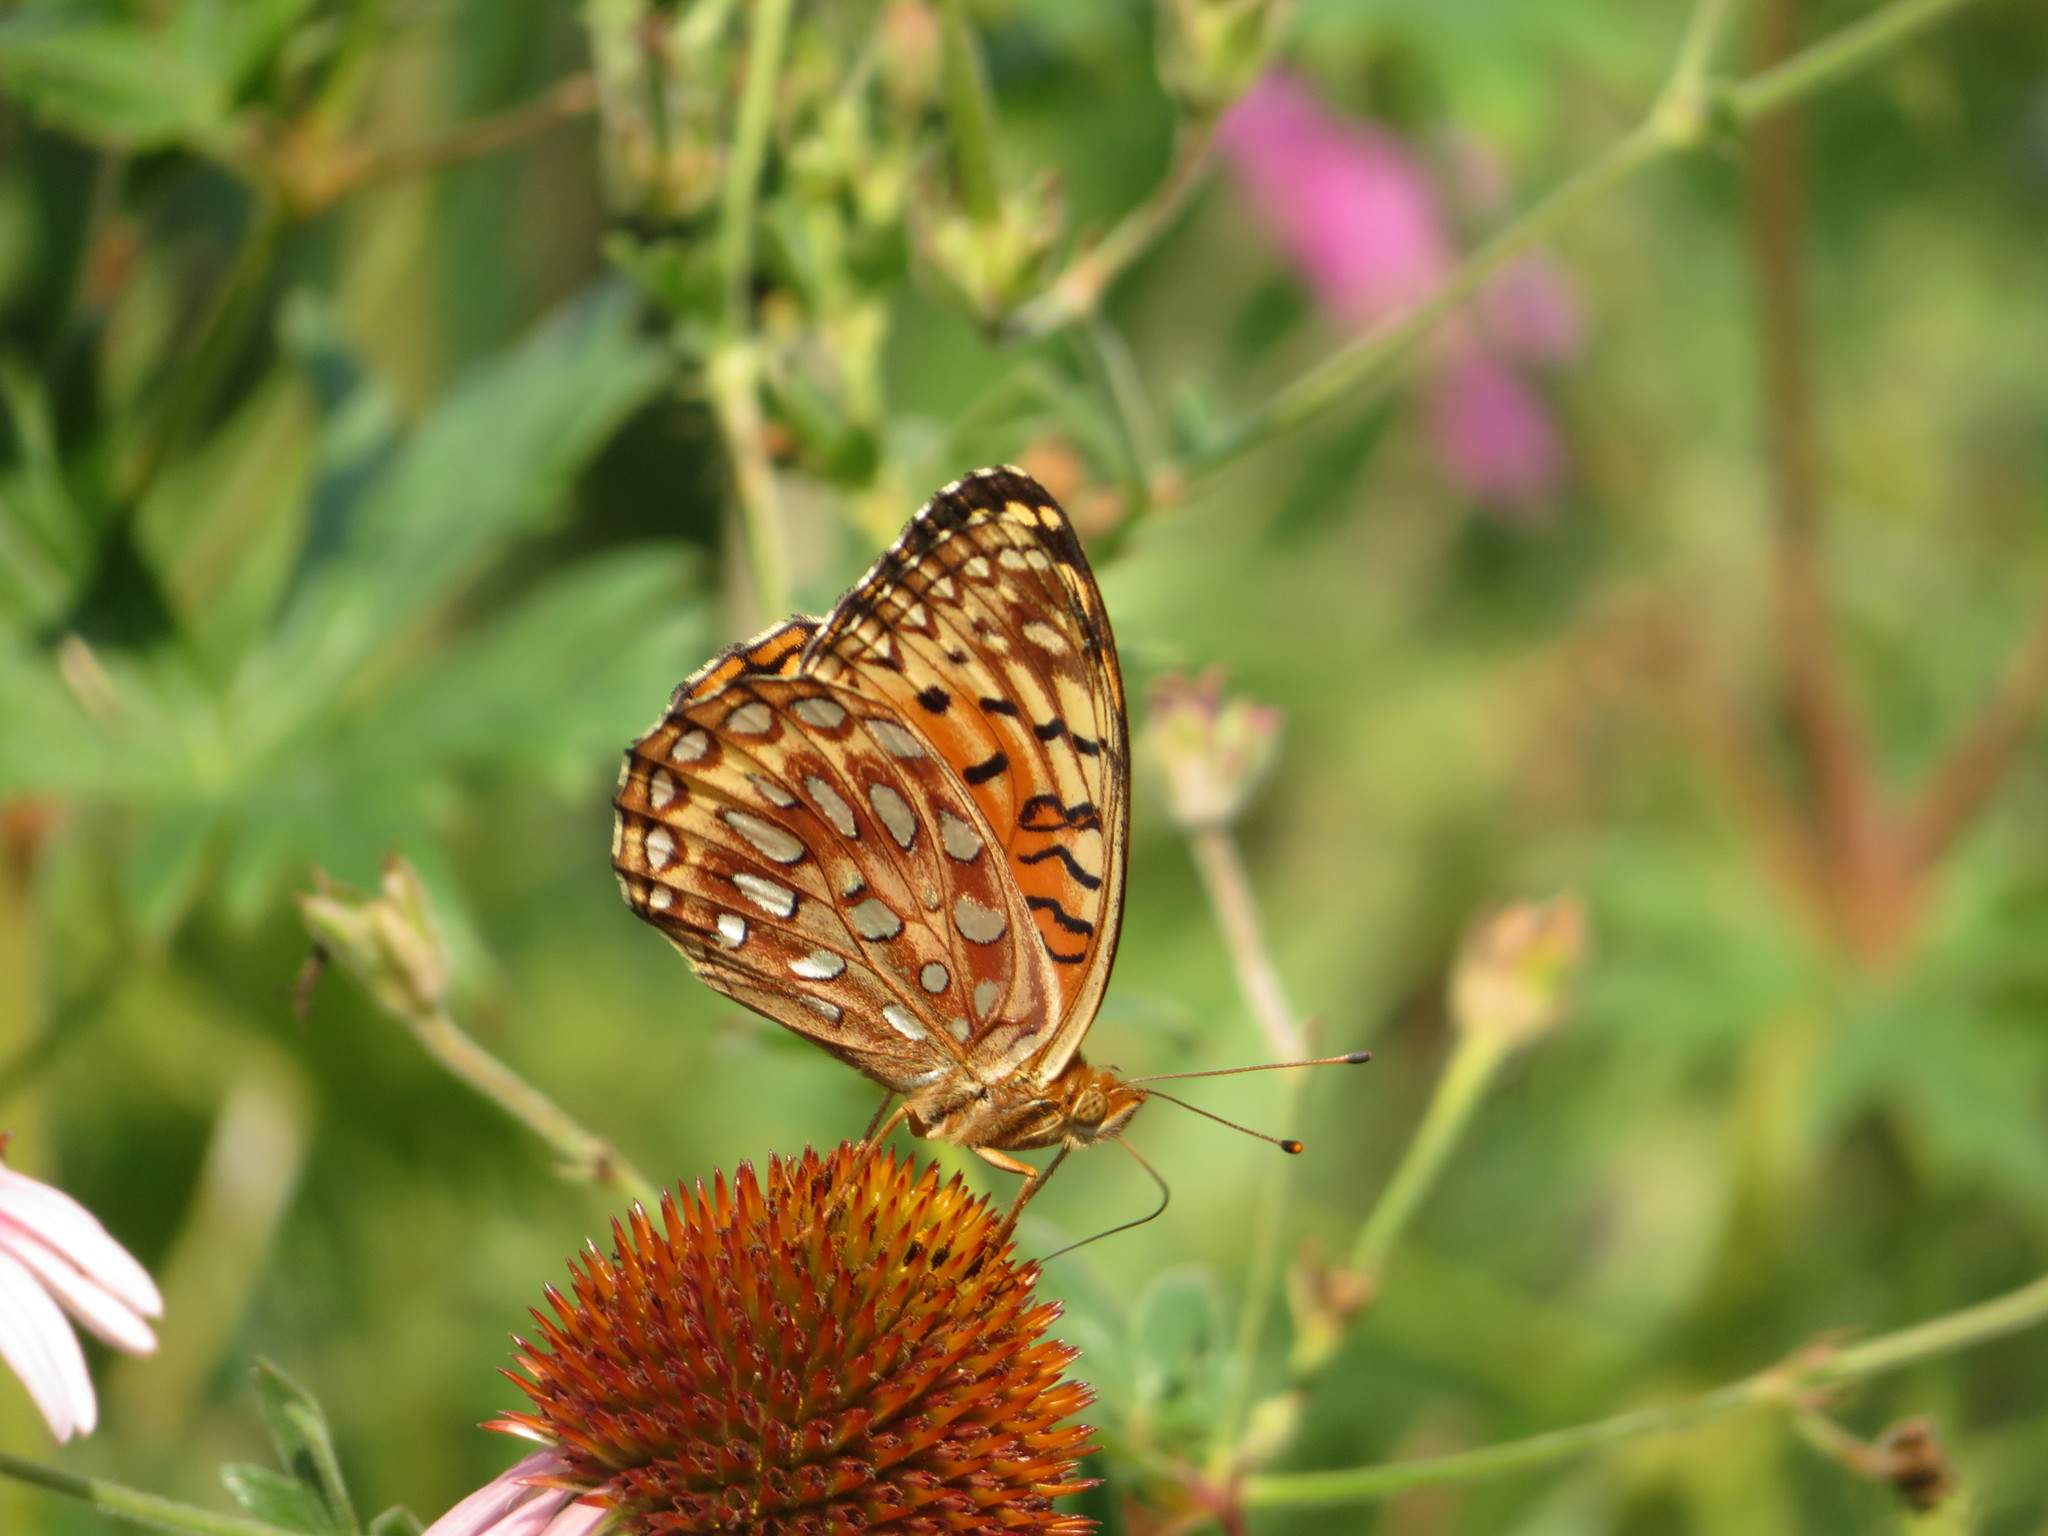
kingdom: Animalia
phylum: Arthropoda
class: Insecta
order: Lepidoptera
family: Nymphalidae
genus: Speyeria
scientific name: Speyeria aphrodite
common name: Aphrodite friitllary
